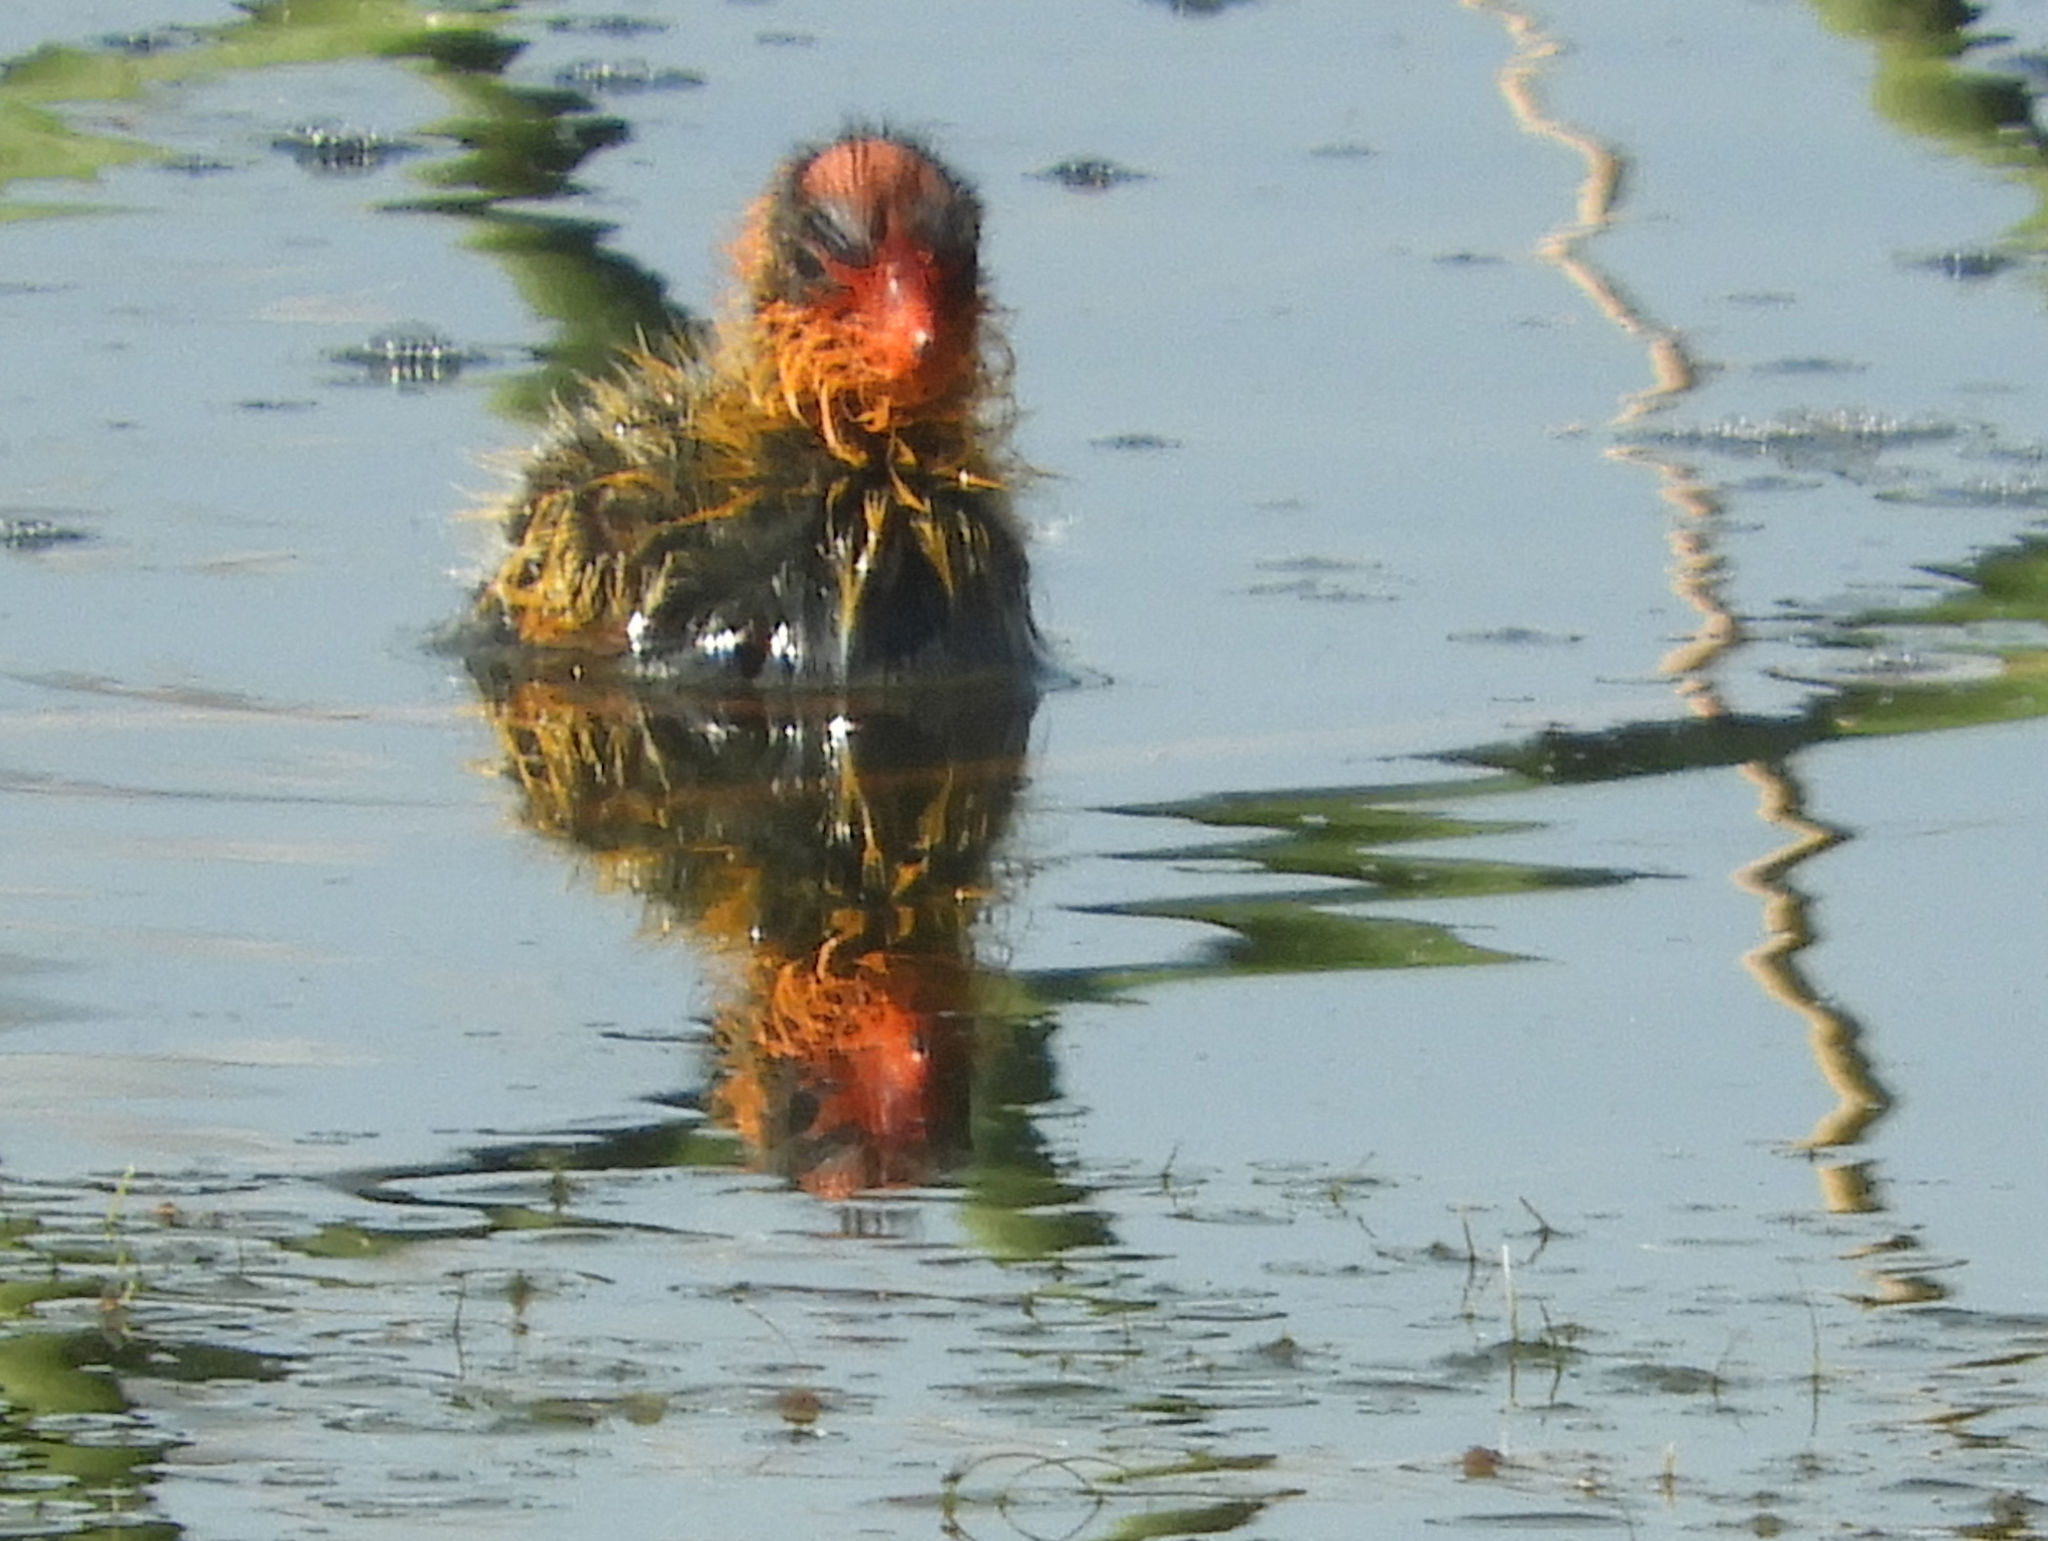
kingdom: Animalia
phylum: Chordata
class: Aves
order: Gruiformes
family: Rallidae
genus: Fulica
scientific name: Fulica americana
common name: American coot
